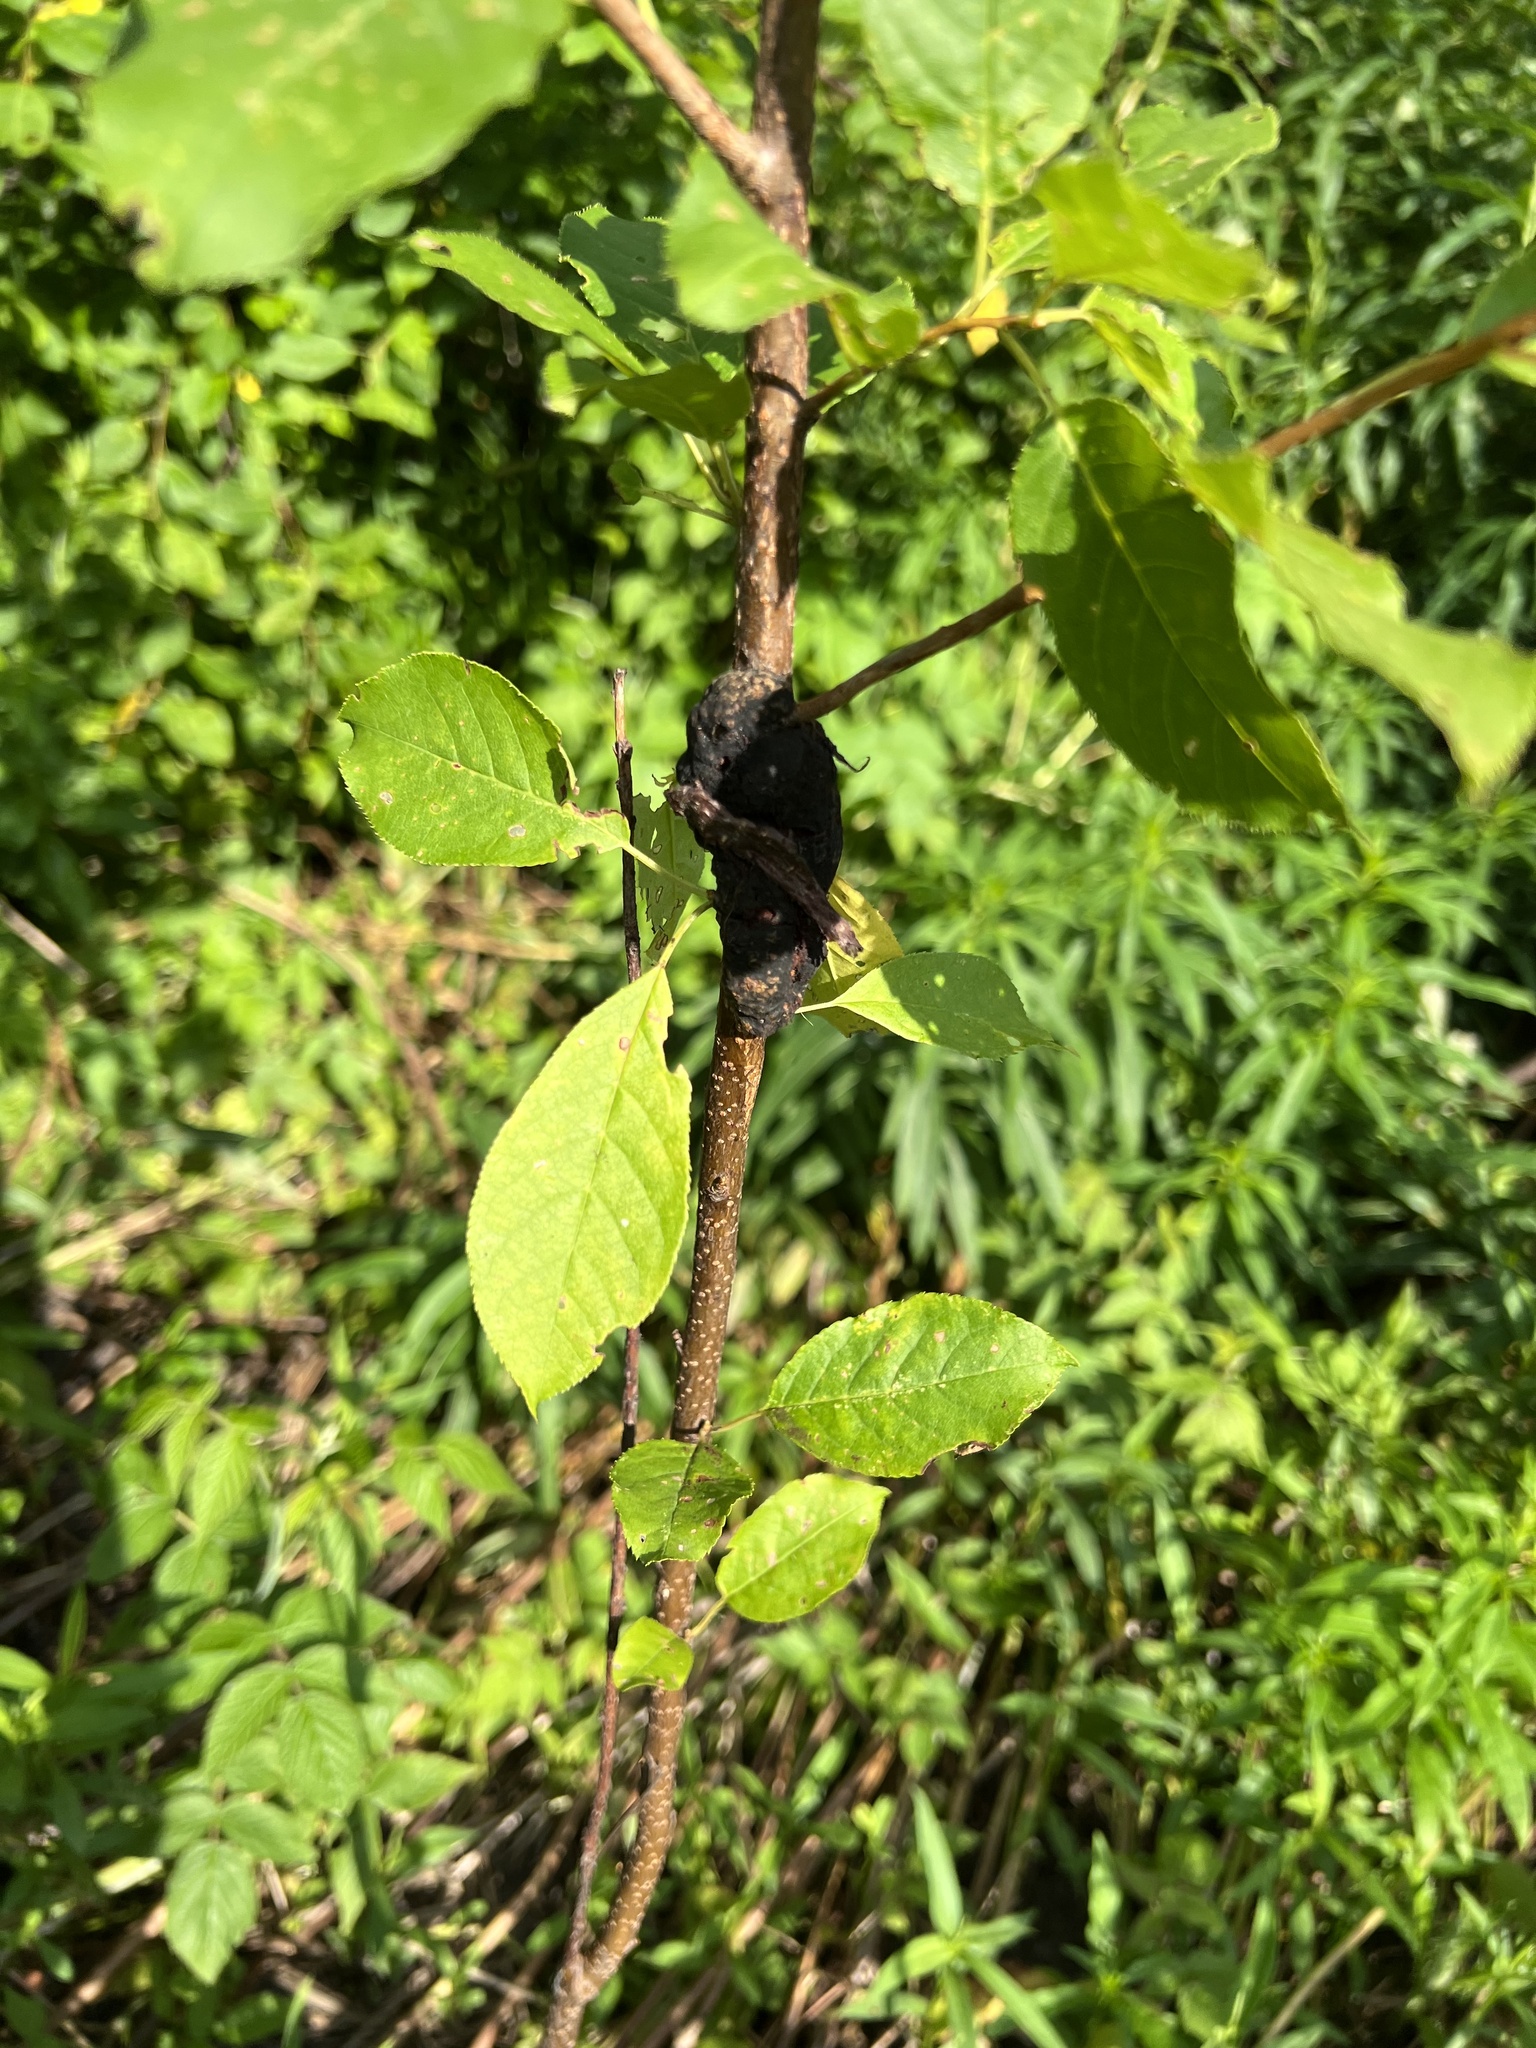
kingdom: Fungi
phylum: Ascomycota
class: Dothideomycetes
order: Venturiales
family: Venturiaceae
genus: Apiosporina
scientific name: Apiosporina morbosa
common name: Black knot
